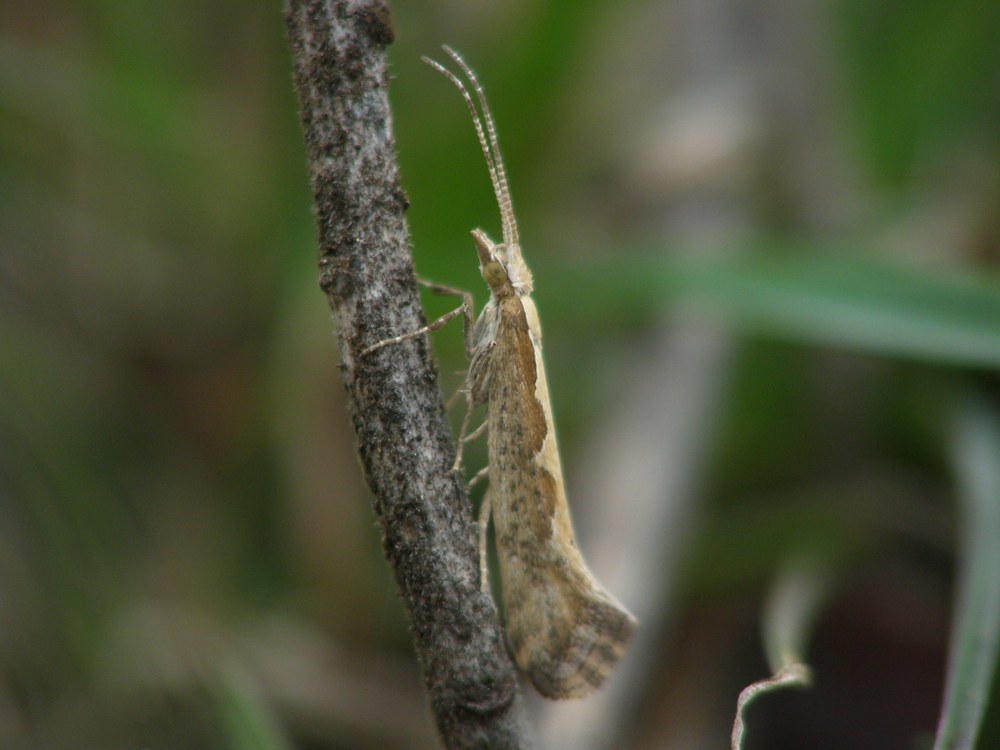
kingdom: Animalia
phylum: Arthropoda
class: Insecta
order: Lepidoptera
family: Plutellidae
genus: Plutella
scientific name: Plutella xylostella
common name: Diamond-back moth
